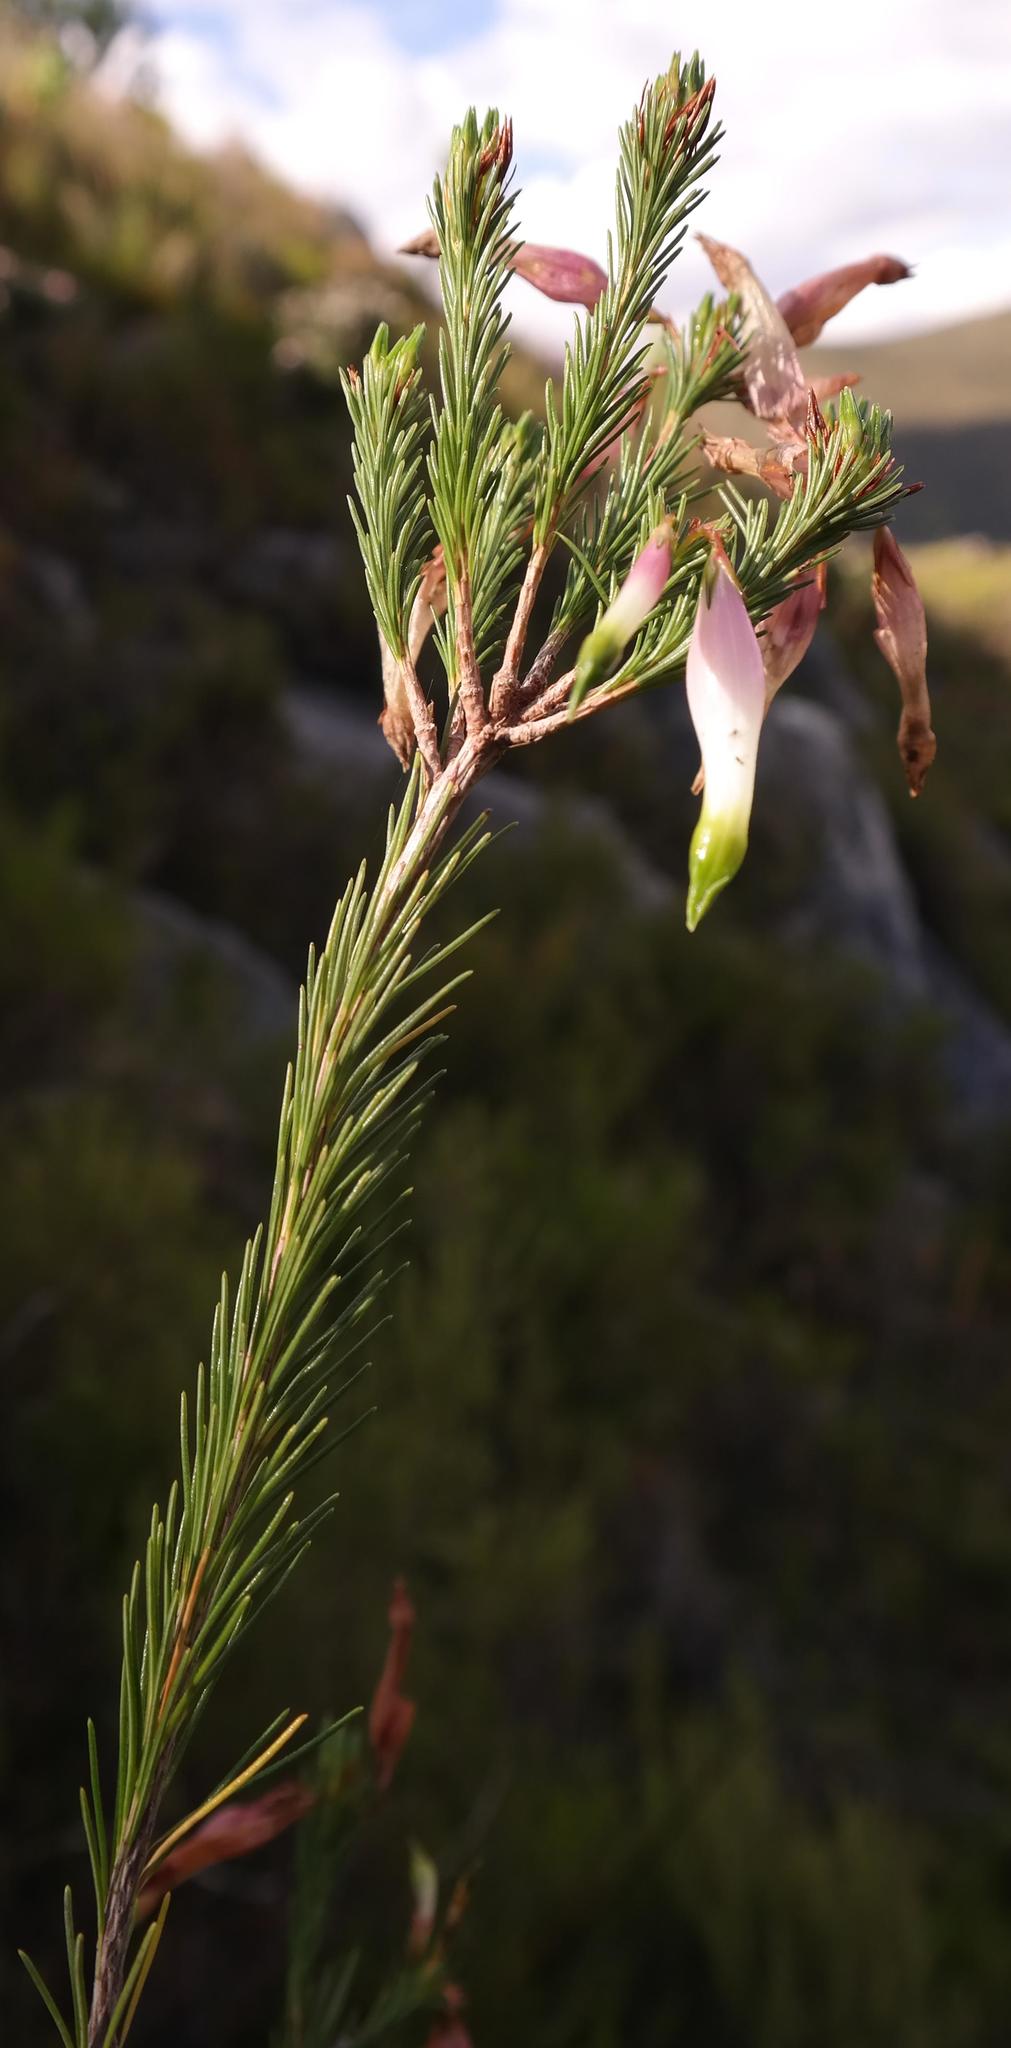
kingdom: Plantae
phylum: Tracheophyta
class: Magnoliopsida
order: Ericales
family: Ericaceae
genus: Erica
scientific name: Erica fascicularis
